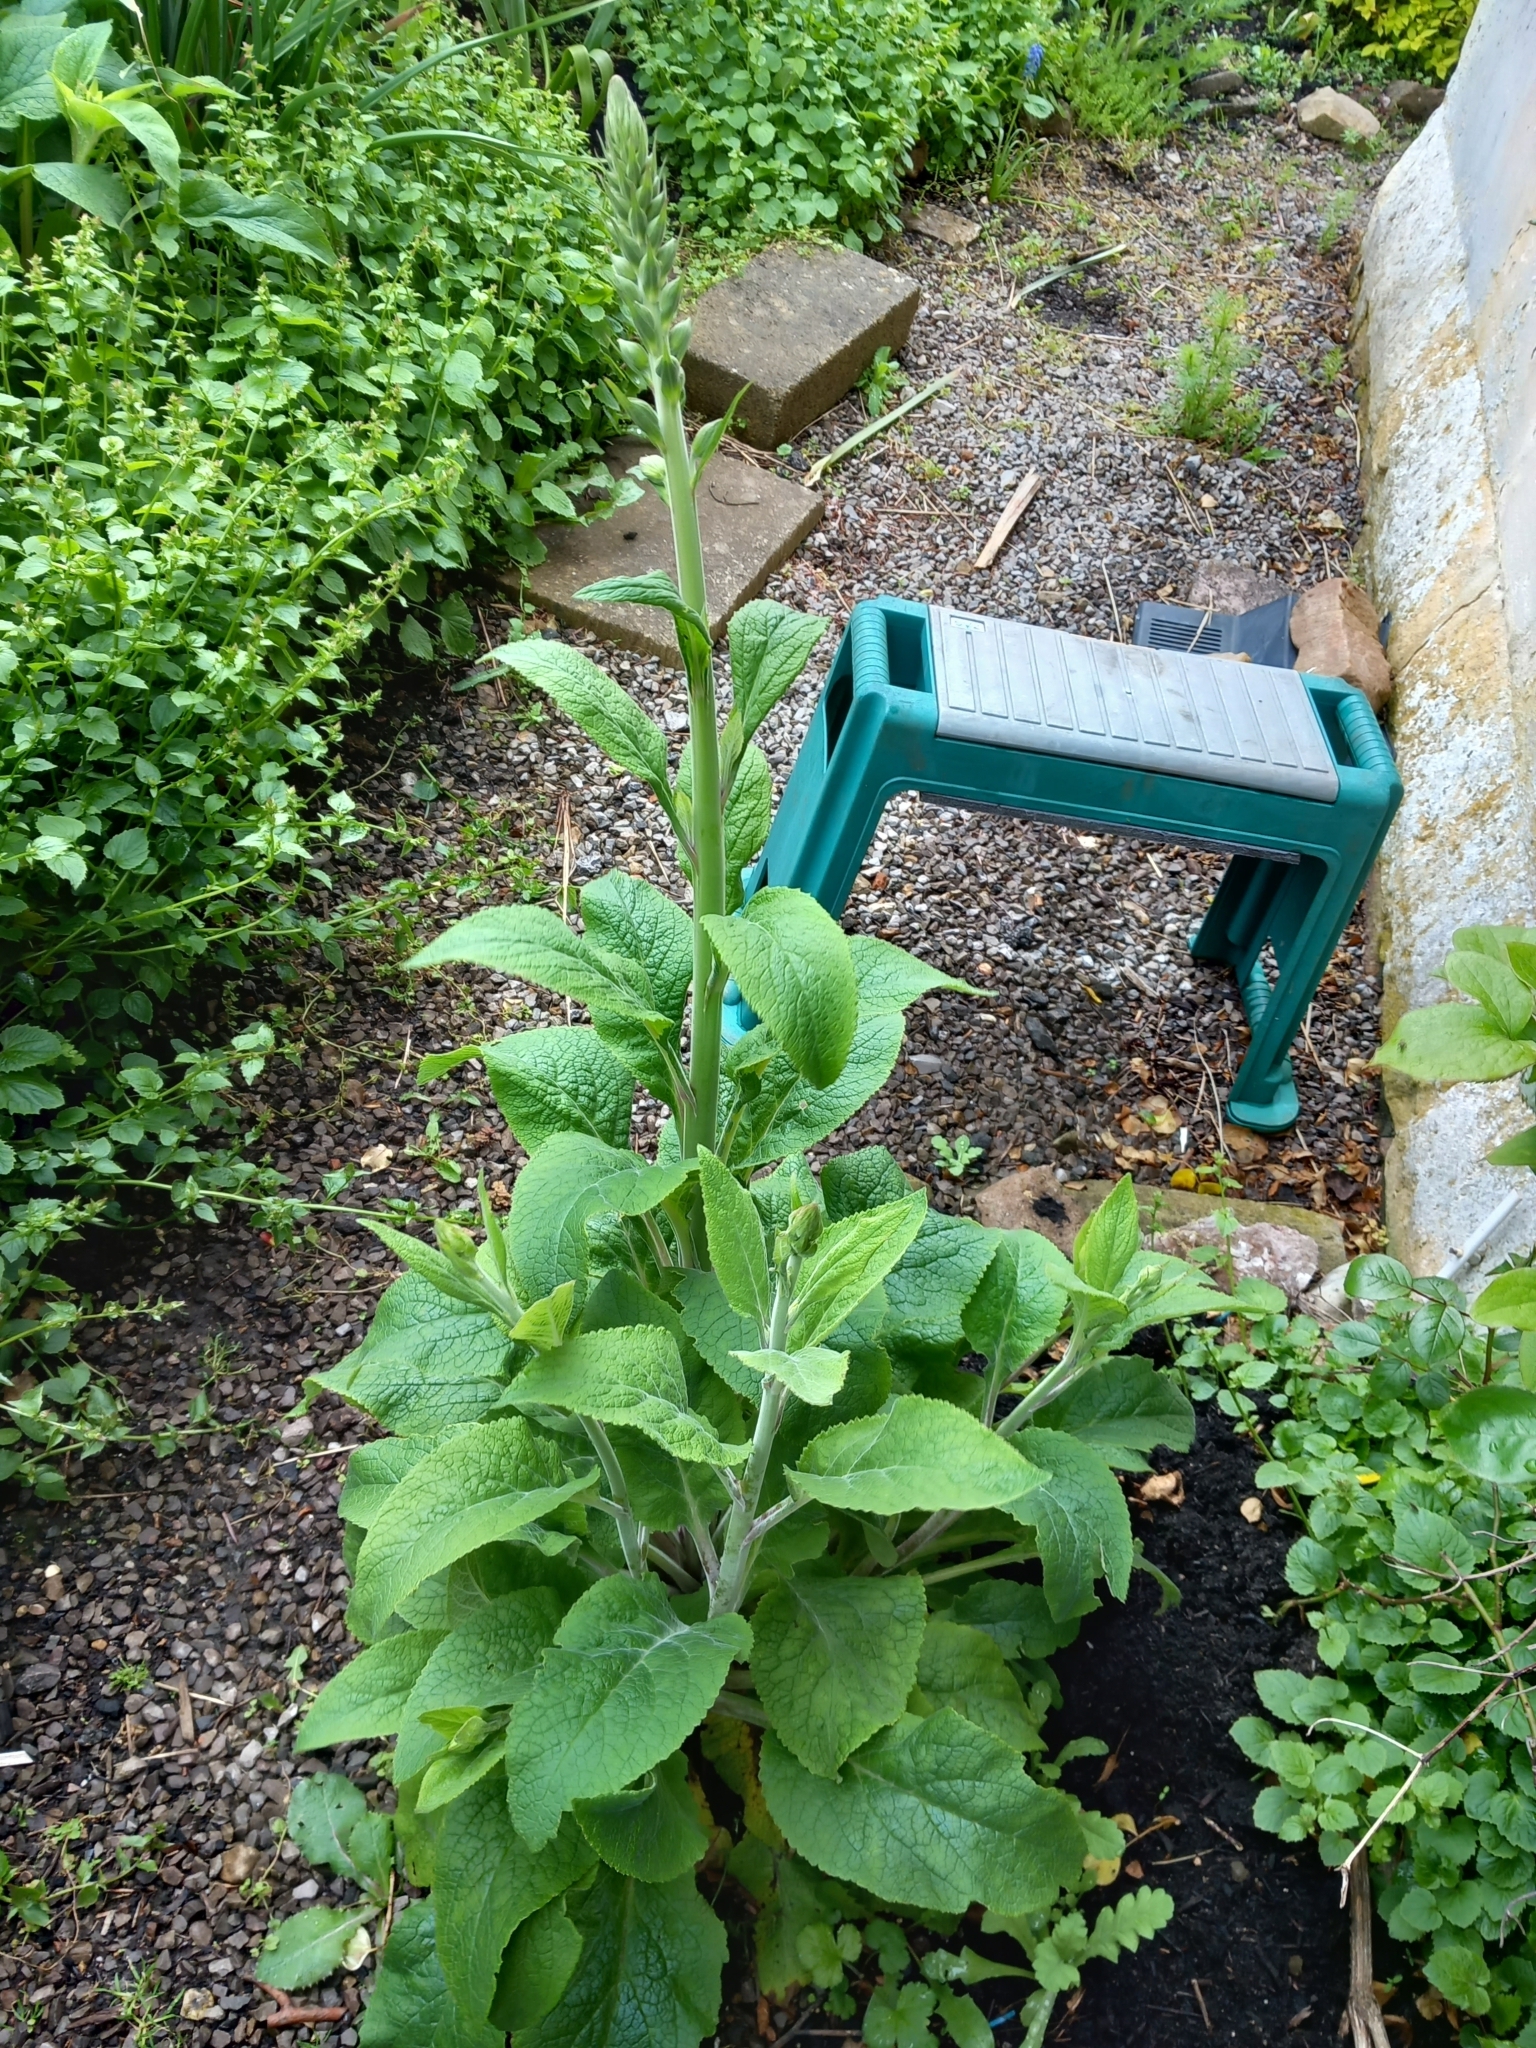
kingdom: Plantae
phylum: Tracheophyta
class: Magnoliopsida
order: Lamiales
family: Plantaginaceae
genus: Digitalis
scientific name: Digitalis purpurea
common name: Foxglove
